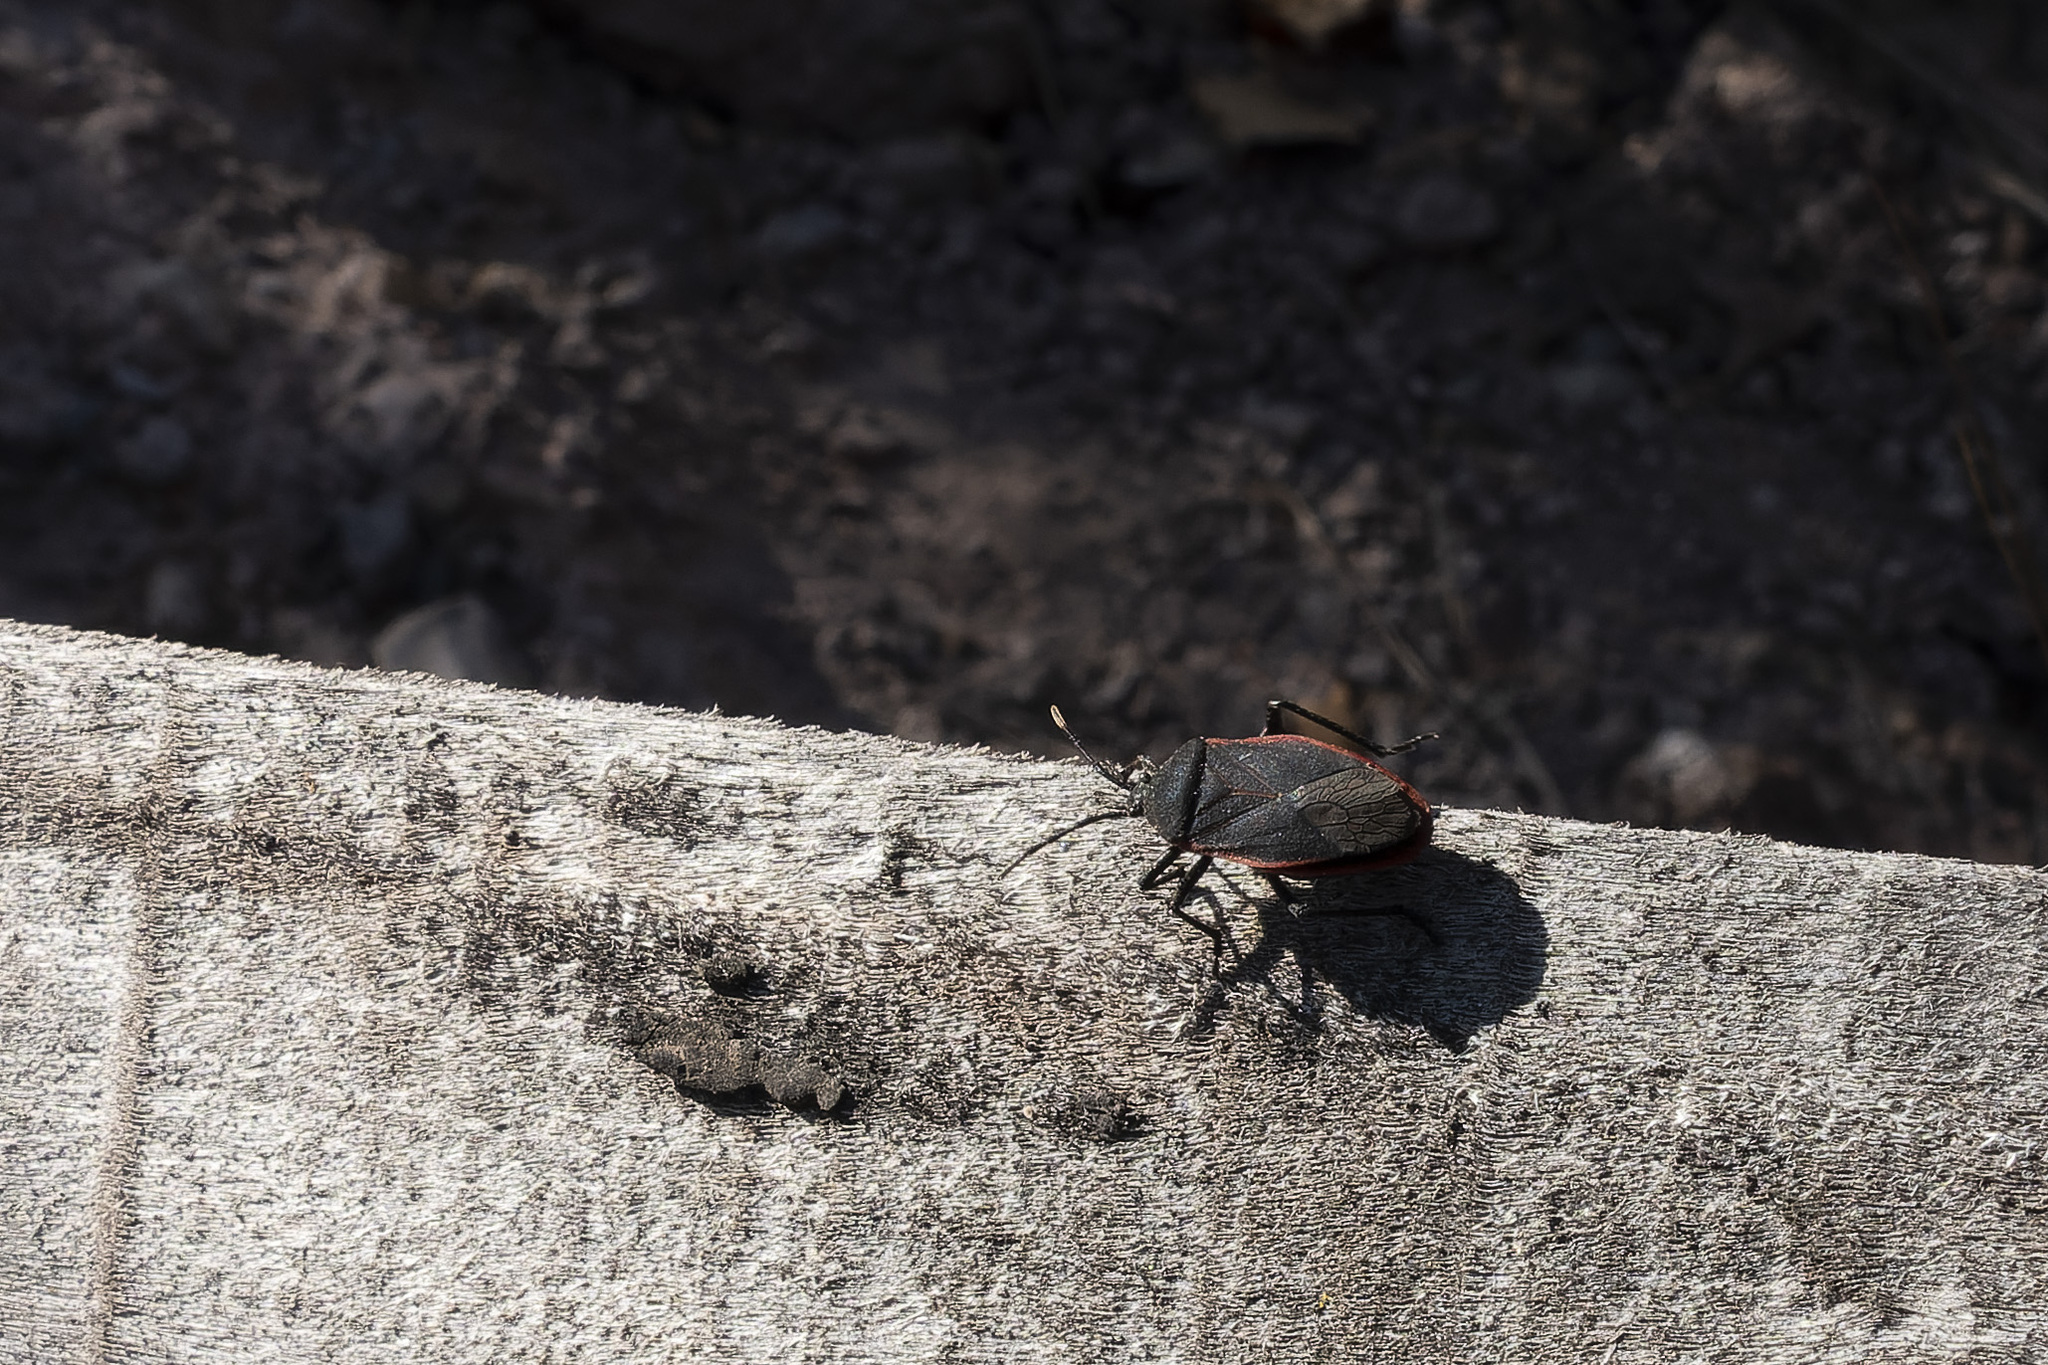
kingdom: Animalia
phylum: Arthropoda
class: Insecta
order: Hemiptera
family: Largidae
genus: Largus
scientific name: Largus rufipennis
